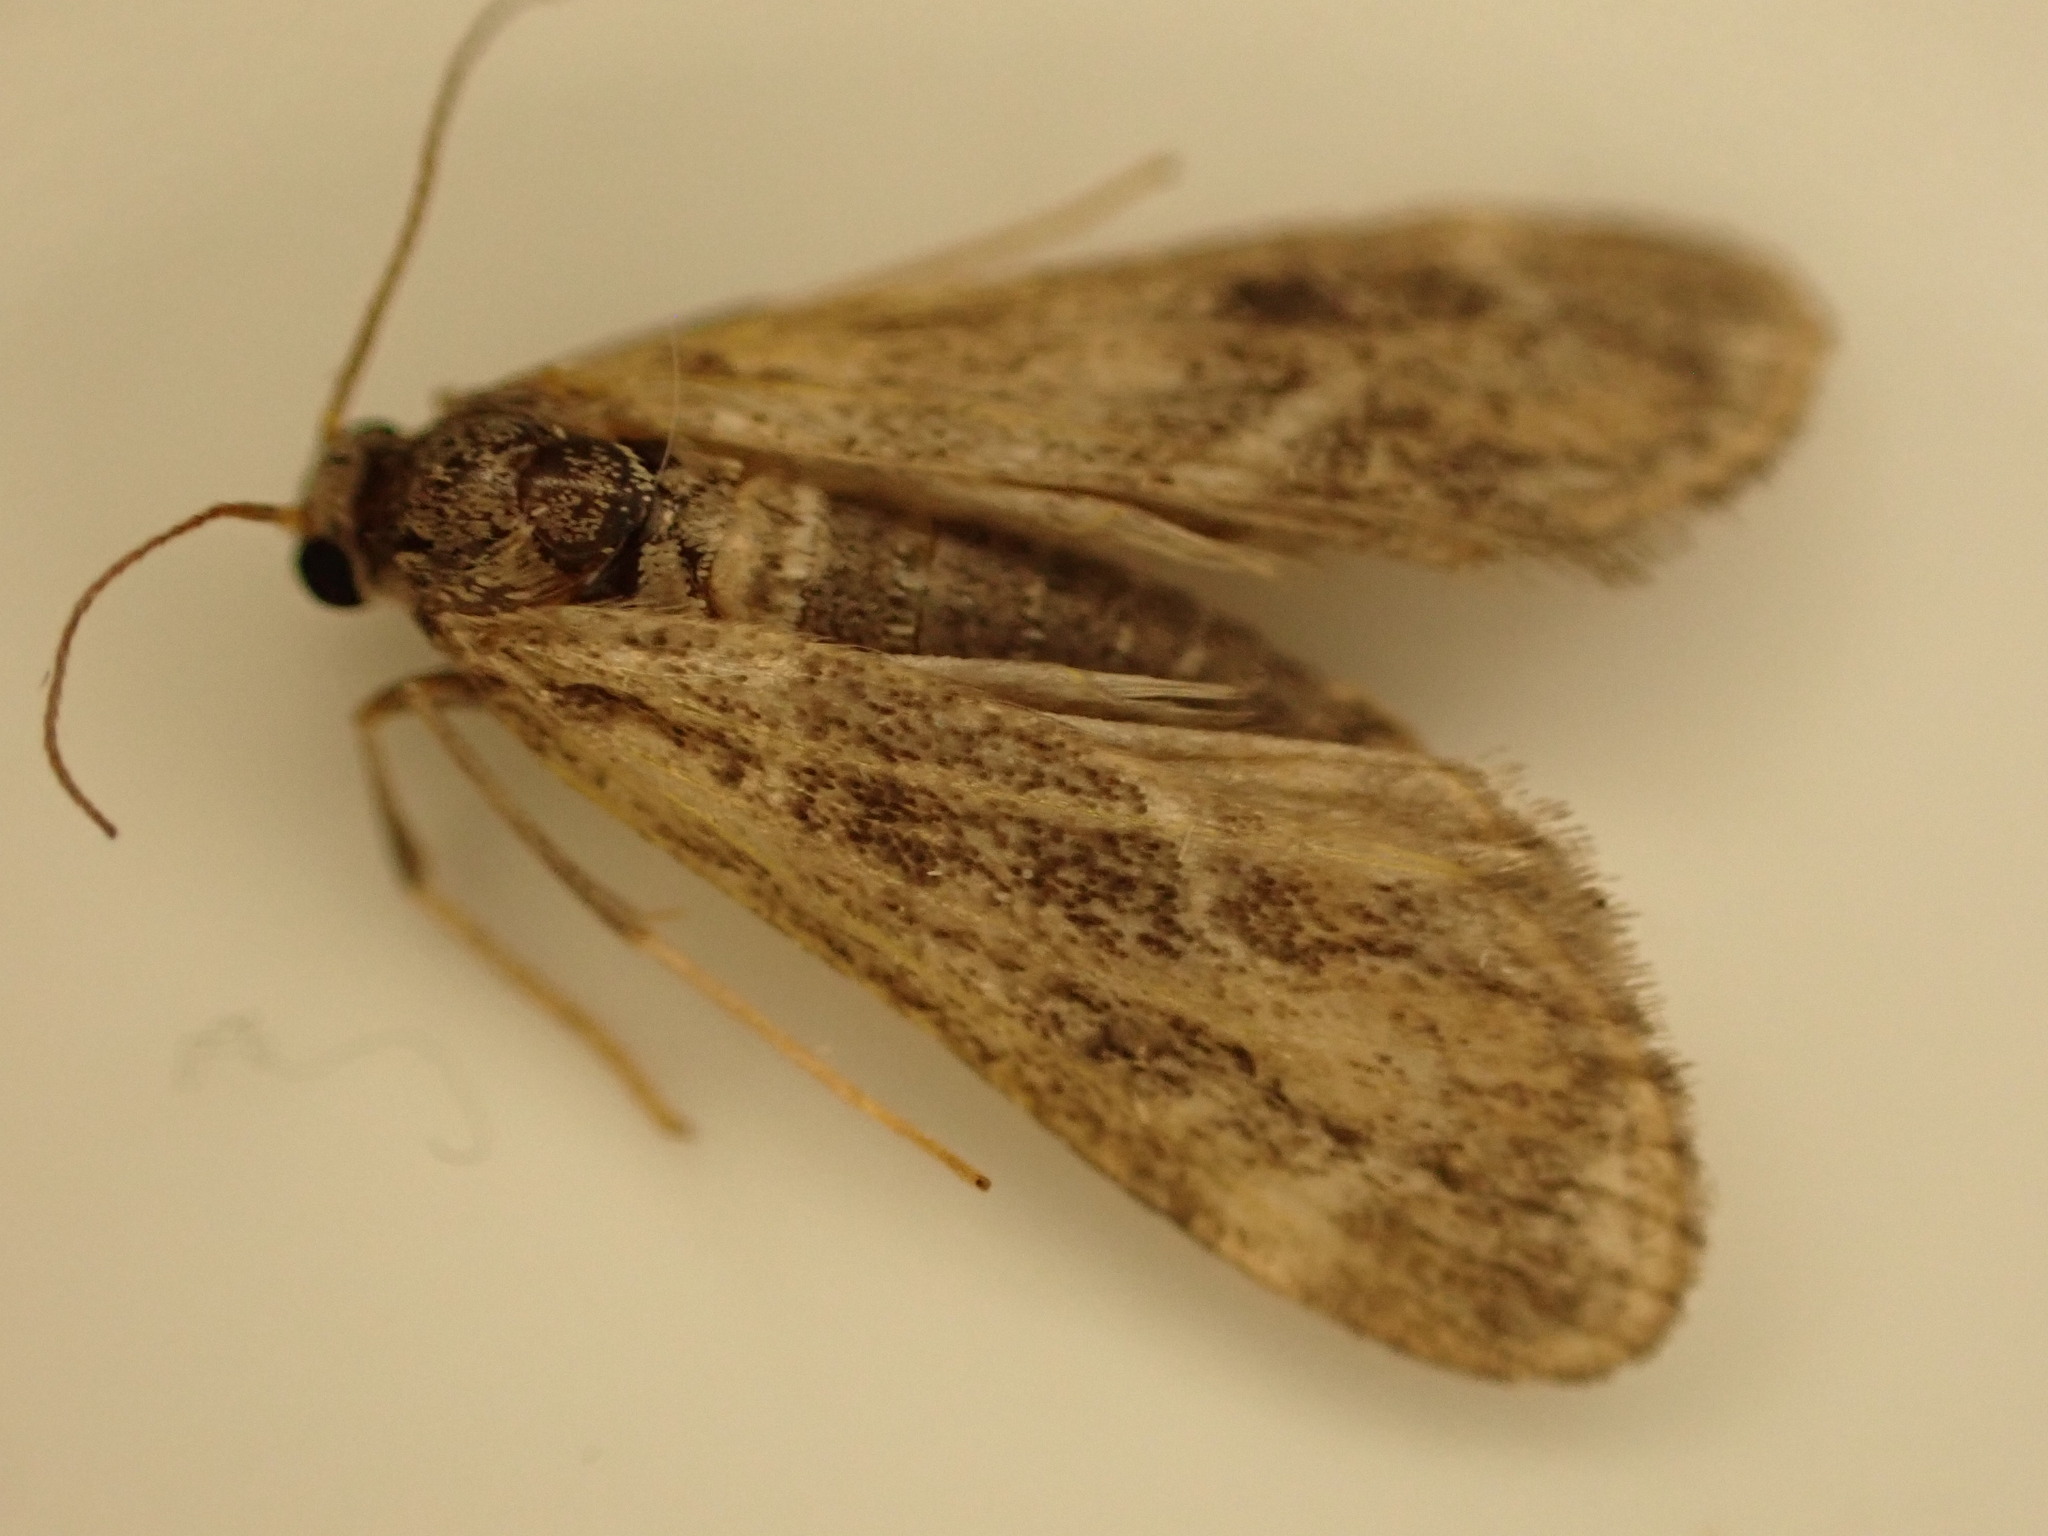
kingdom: Animalia
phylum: Arthropoda
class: Insecta
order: Lepidoptera
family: Crambidae
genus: Hygraula
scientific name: Hygraula nitens
